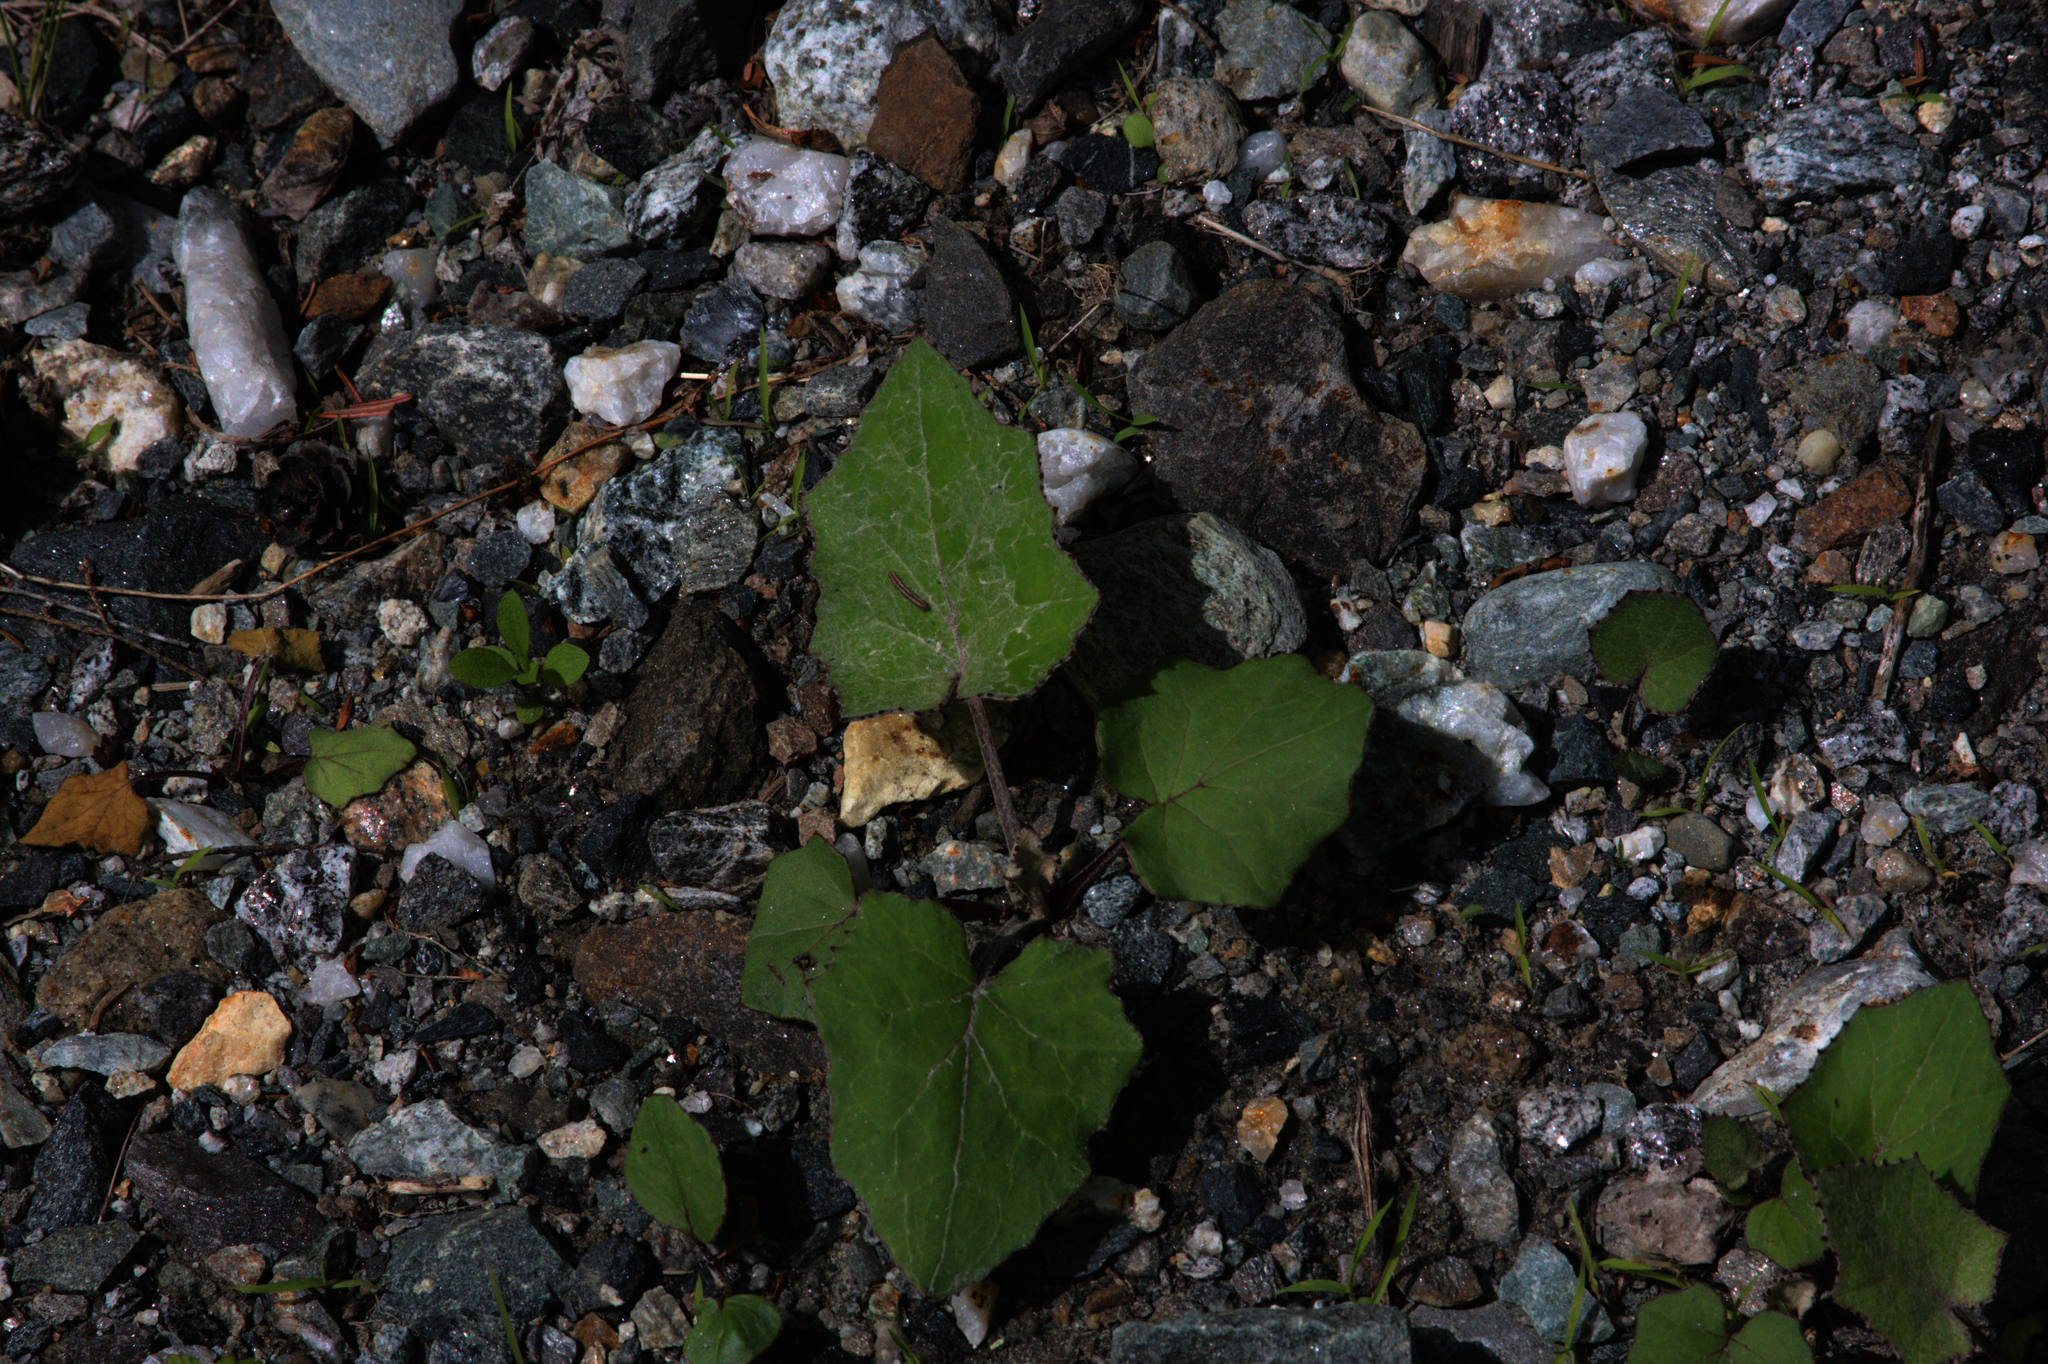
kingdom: Plantae
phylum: Tracheophyta
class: Magnoliopsida
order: Asterales
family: Asteraceae
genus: Tussilago
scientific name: Tussilago farfara
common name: Coltsfoot
